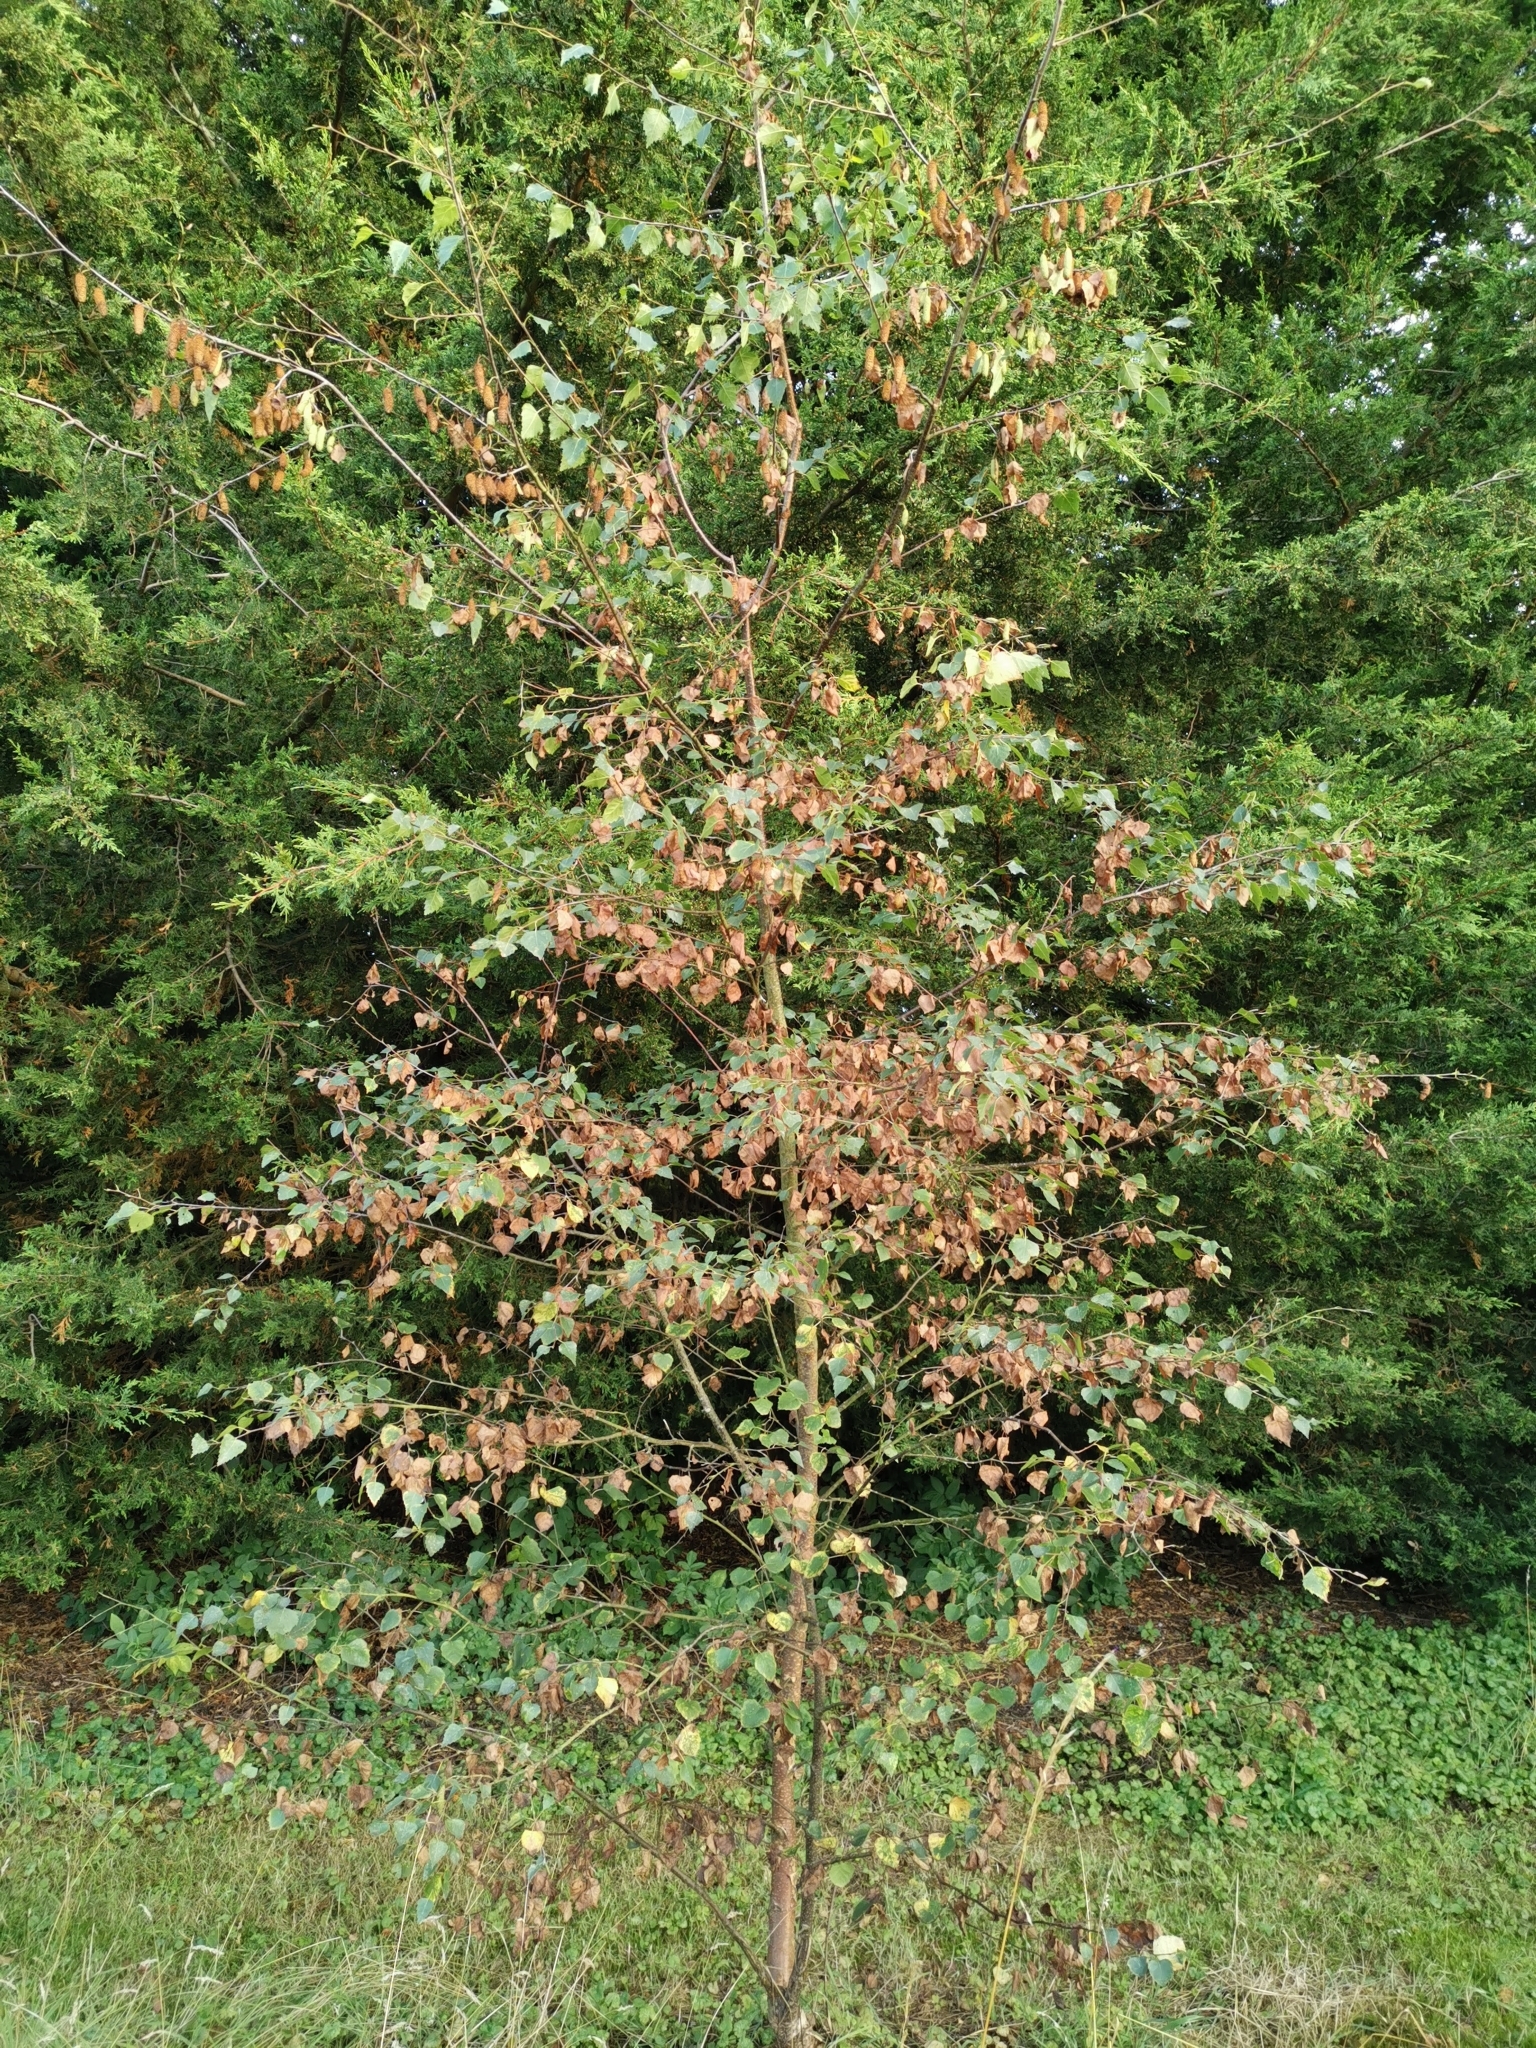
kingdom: Plantae
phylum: Tracheophyta
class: Magnoliopsida
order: Fagales
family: Betulaceae
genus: Betula
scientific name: Betula pendula
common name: Silver birch
